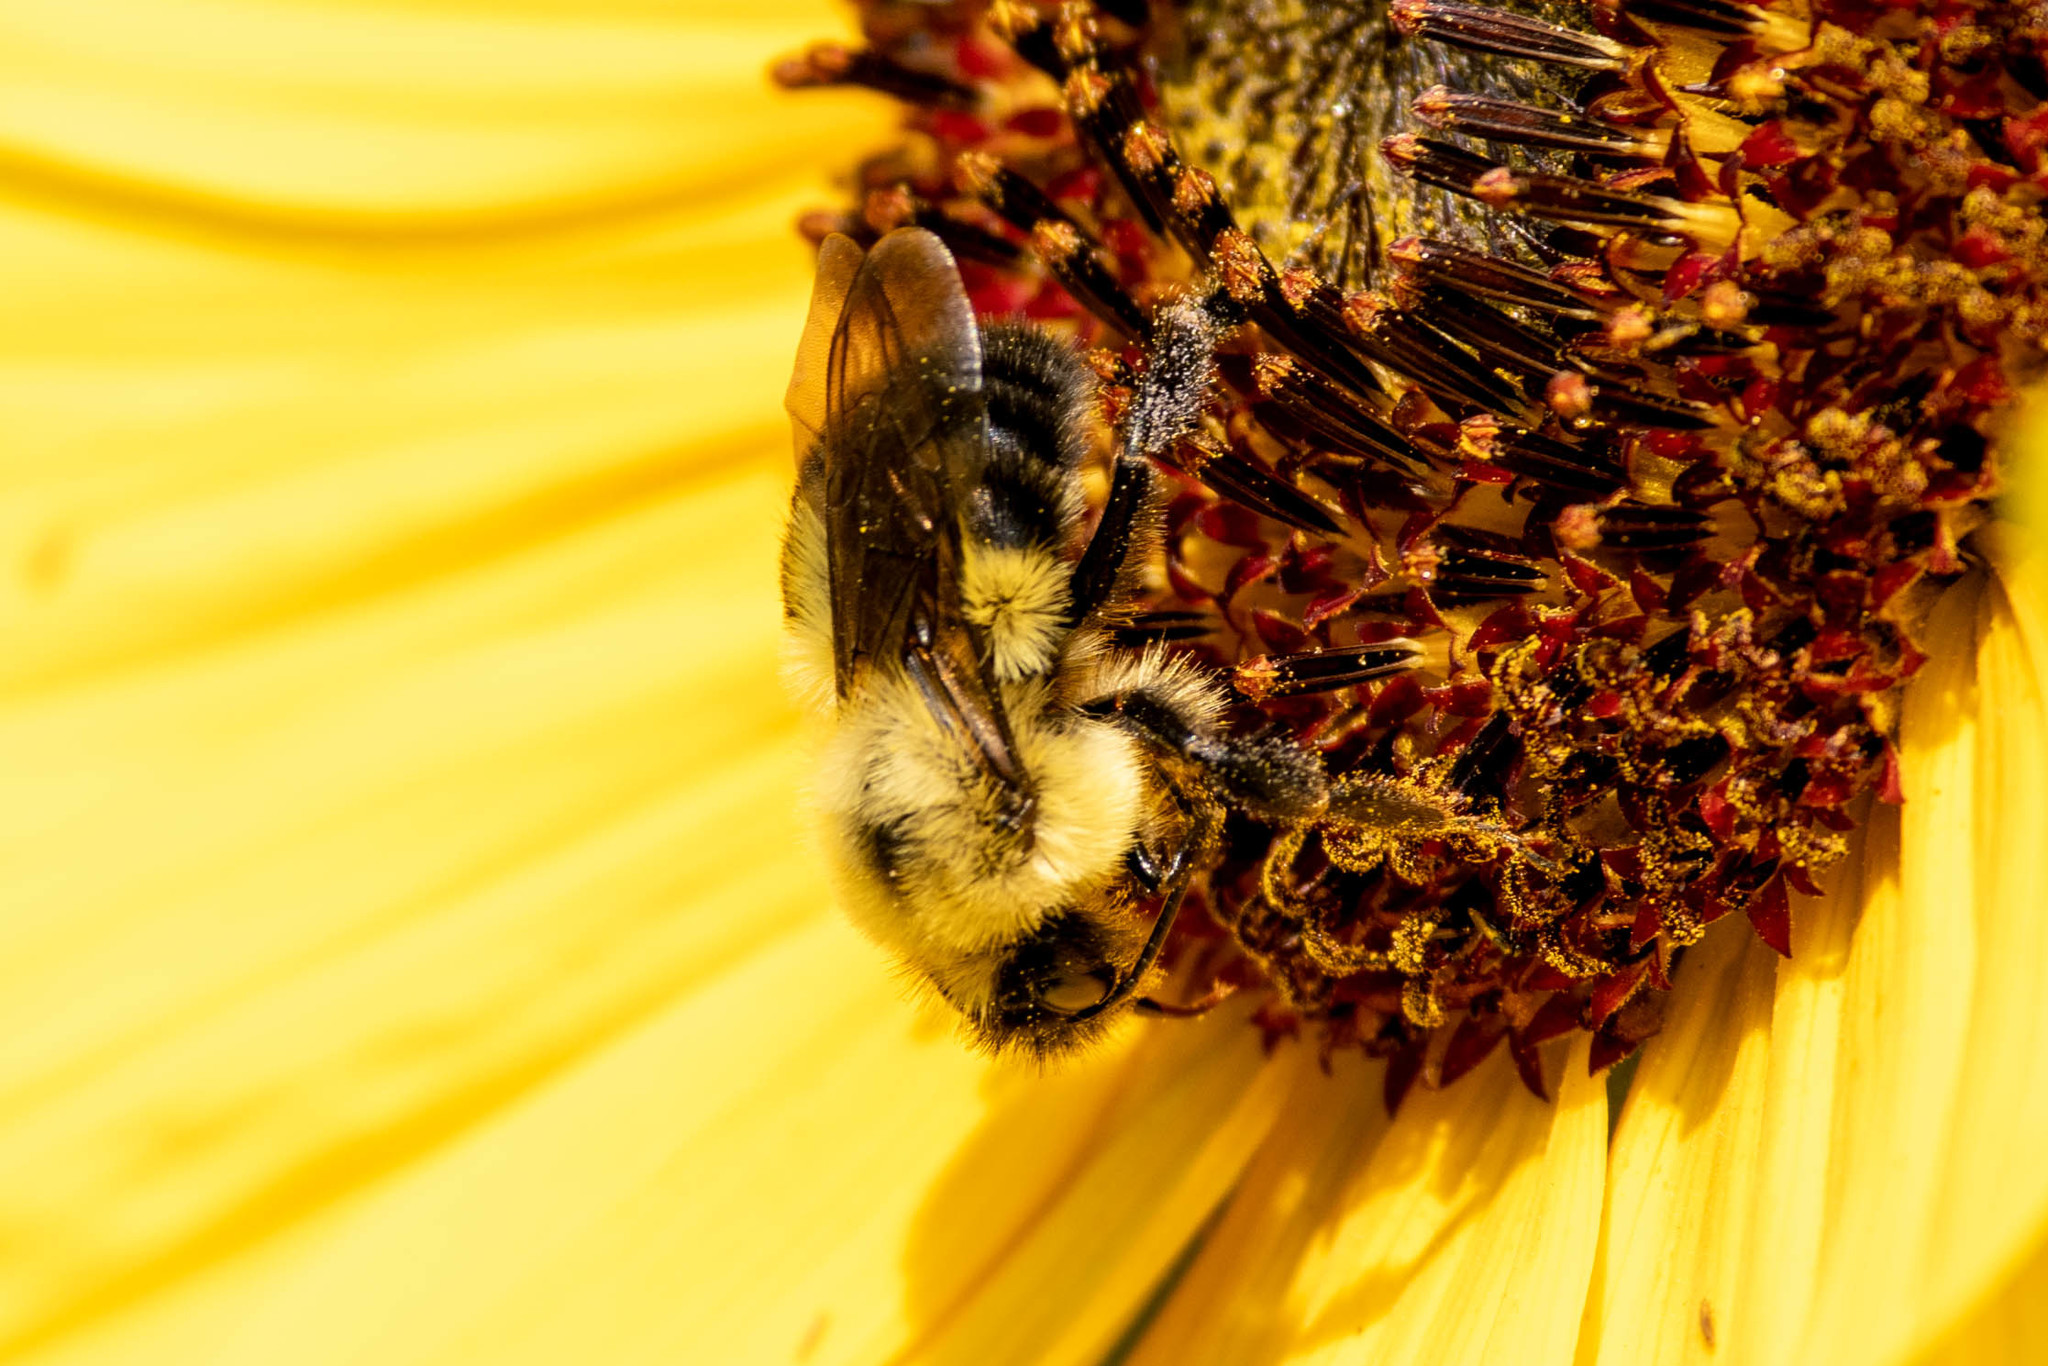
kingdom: Animalia
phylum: Arthropoda
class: Insecta
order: Hymenoptera
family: Apidae
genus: Bombus
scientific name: Bombus bimaculatus
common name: Two-spotted bumble bee
